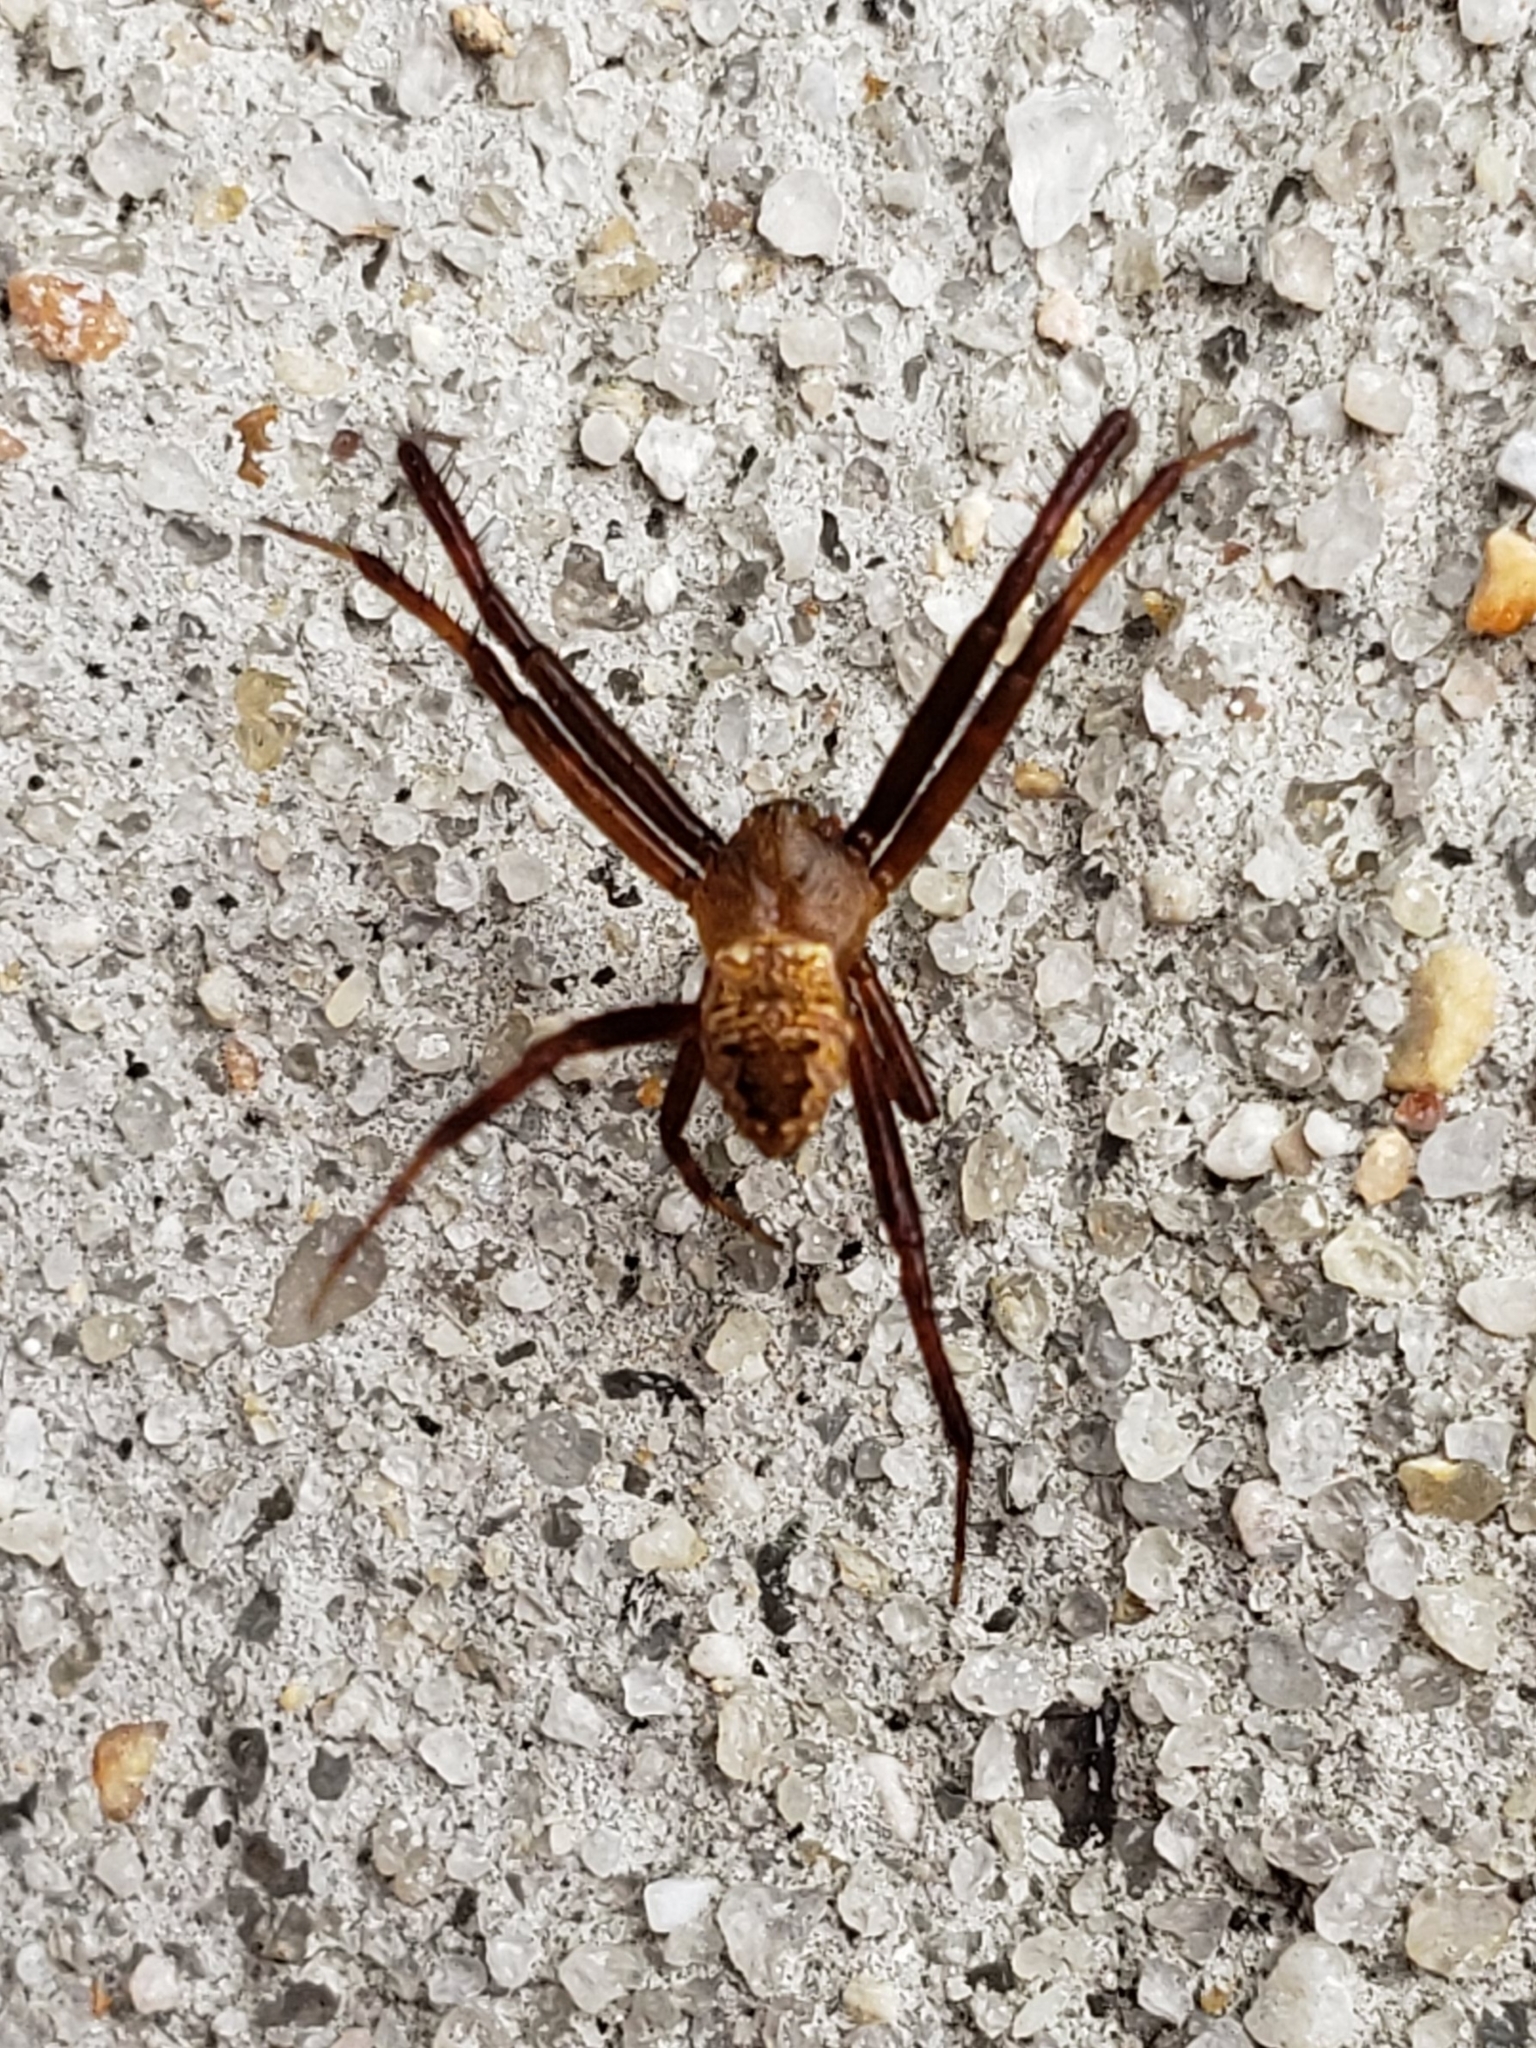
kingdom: Animalia
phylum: Arthropoda
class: Arachnida
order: Araneae
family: Araneidae
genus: Gea
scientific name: Gea heptagon
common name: Orb weavers
